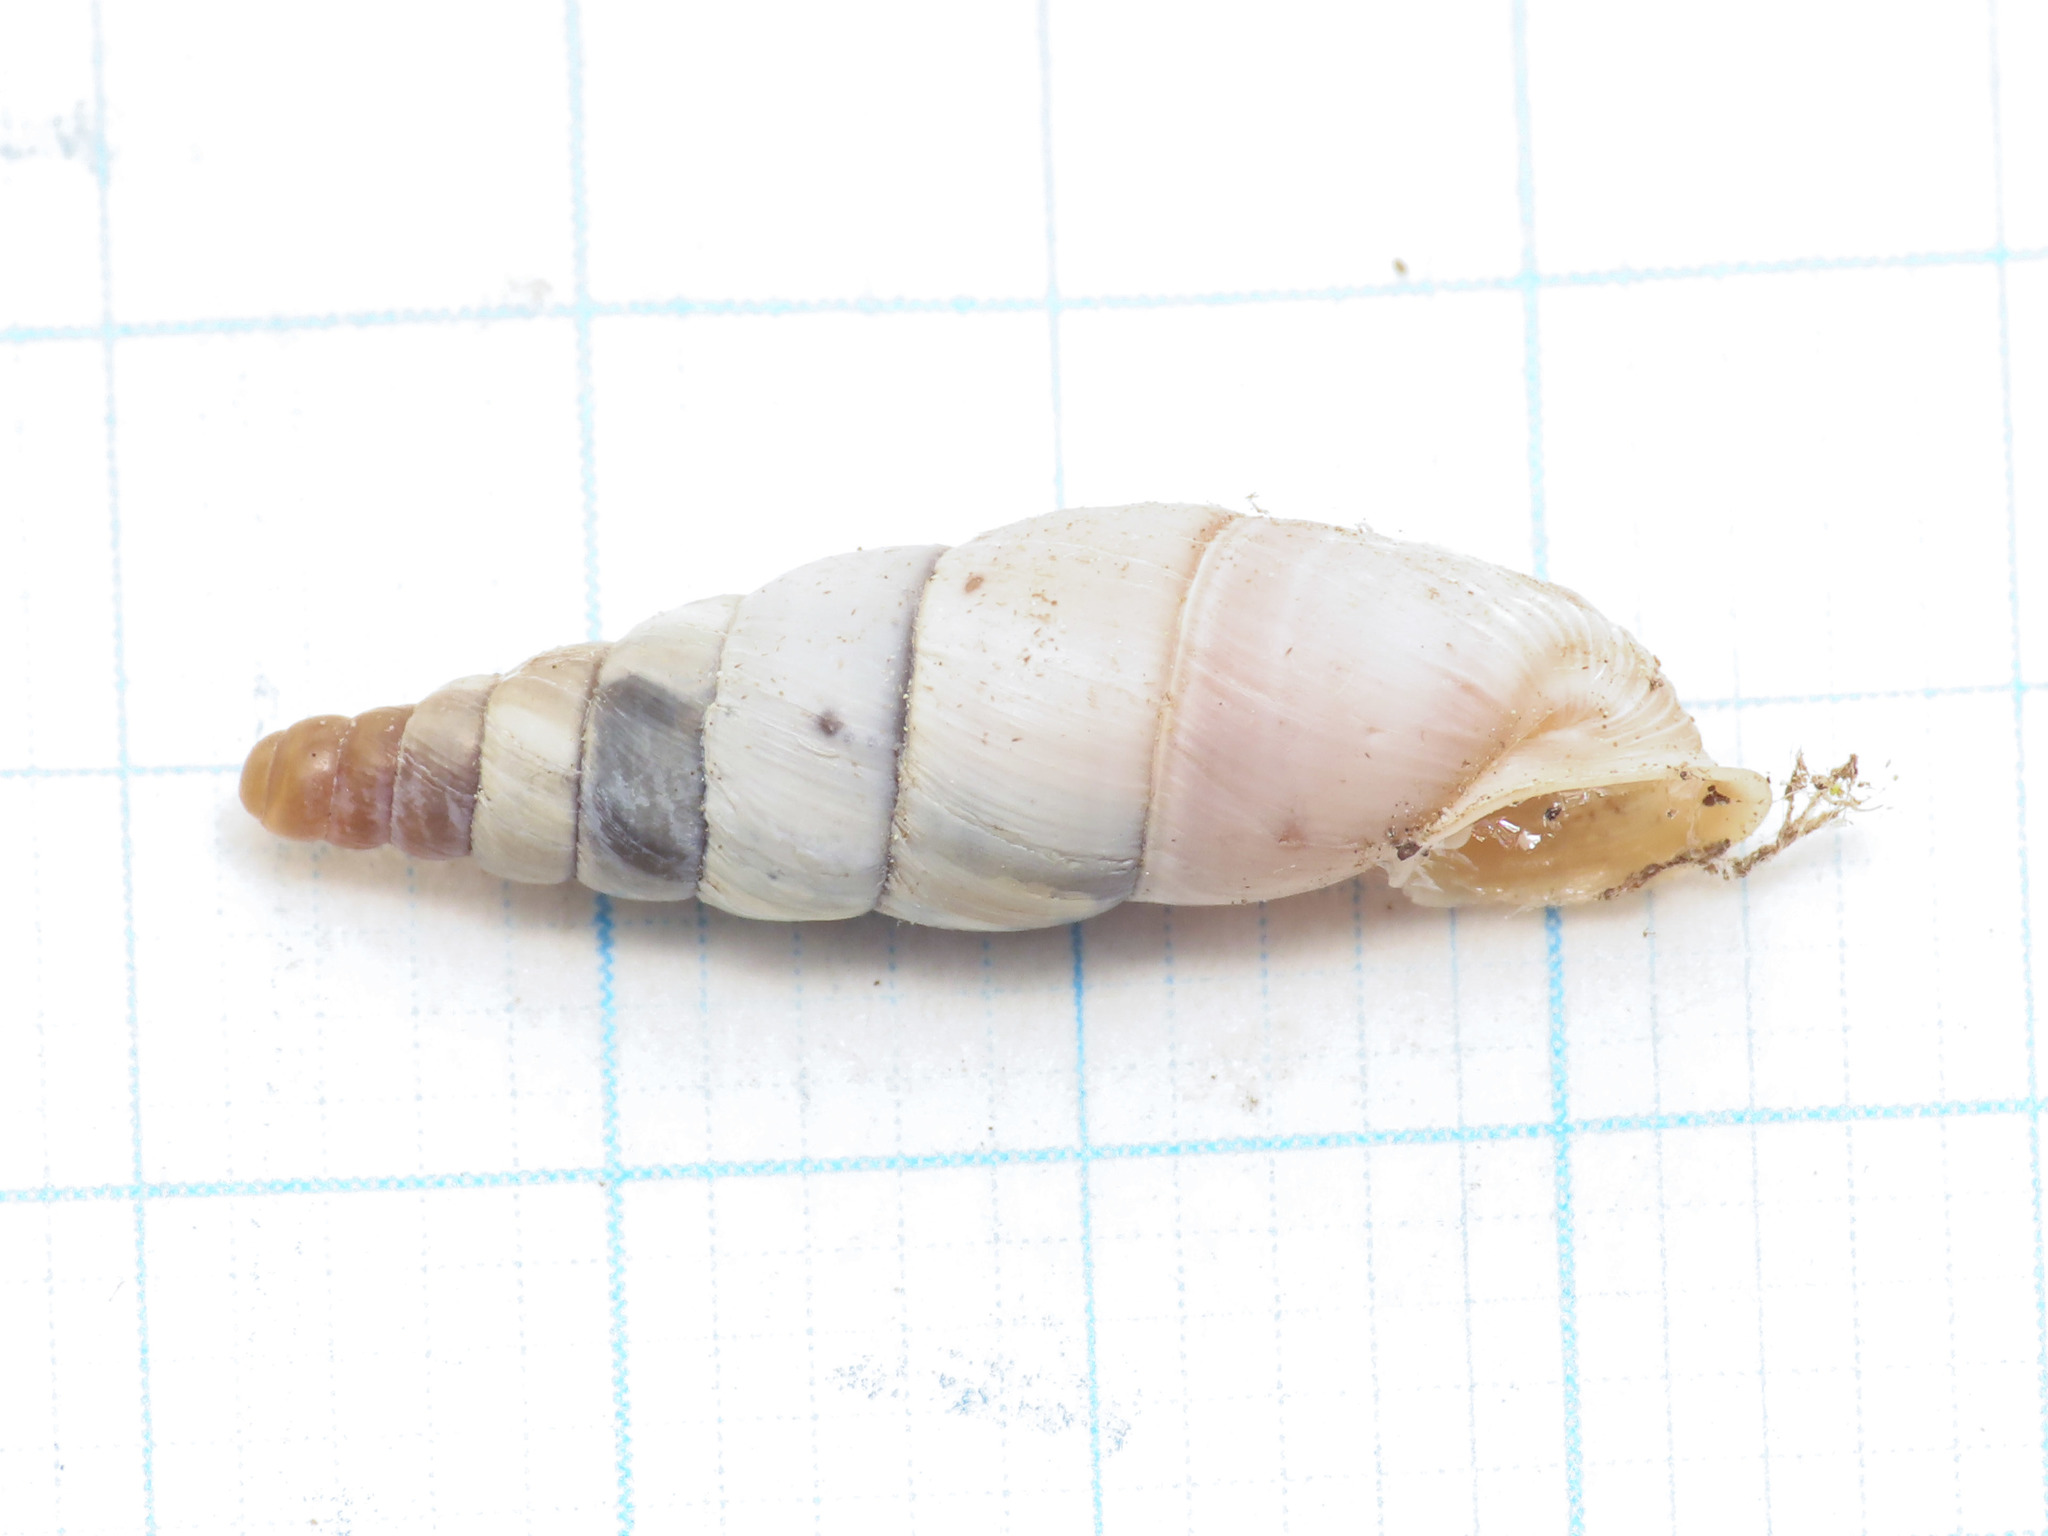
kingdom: Animalia
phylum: Mollusca
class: Gastropoda
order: Stylommatophora
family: Clausiliidae
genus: Leucostigma
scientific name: Leucostigma candidescens
